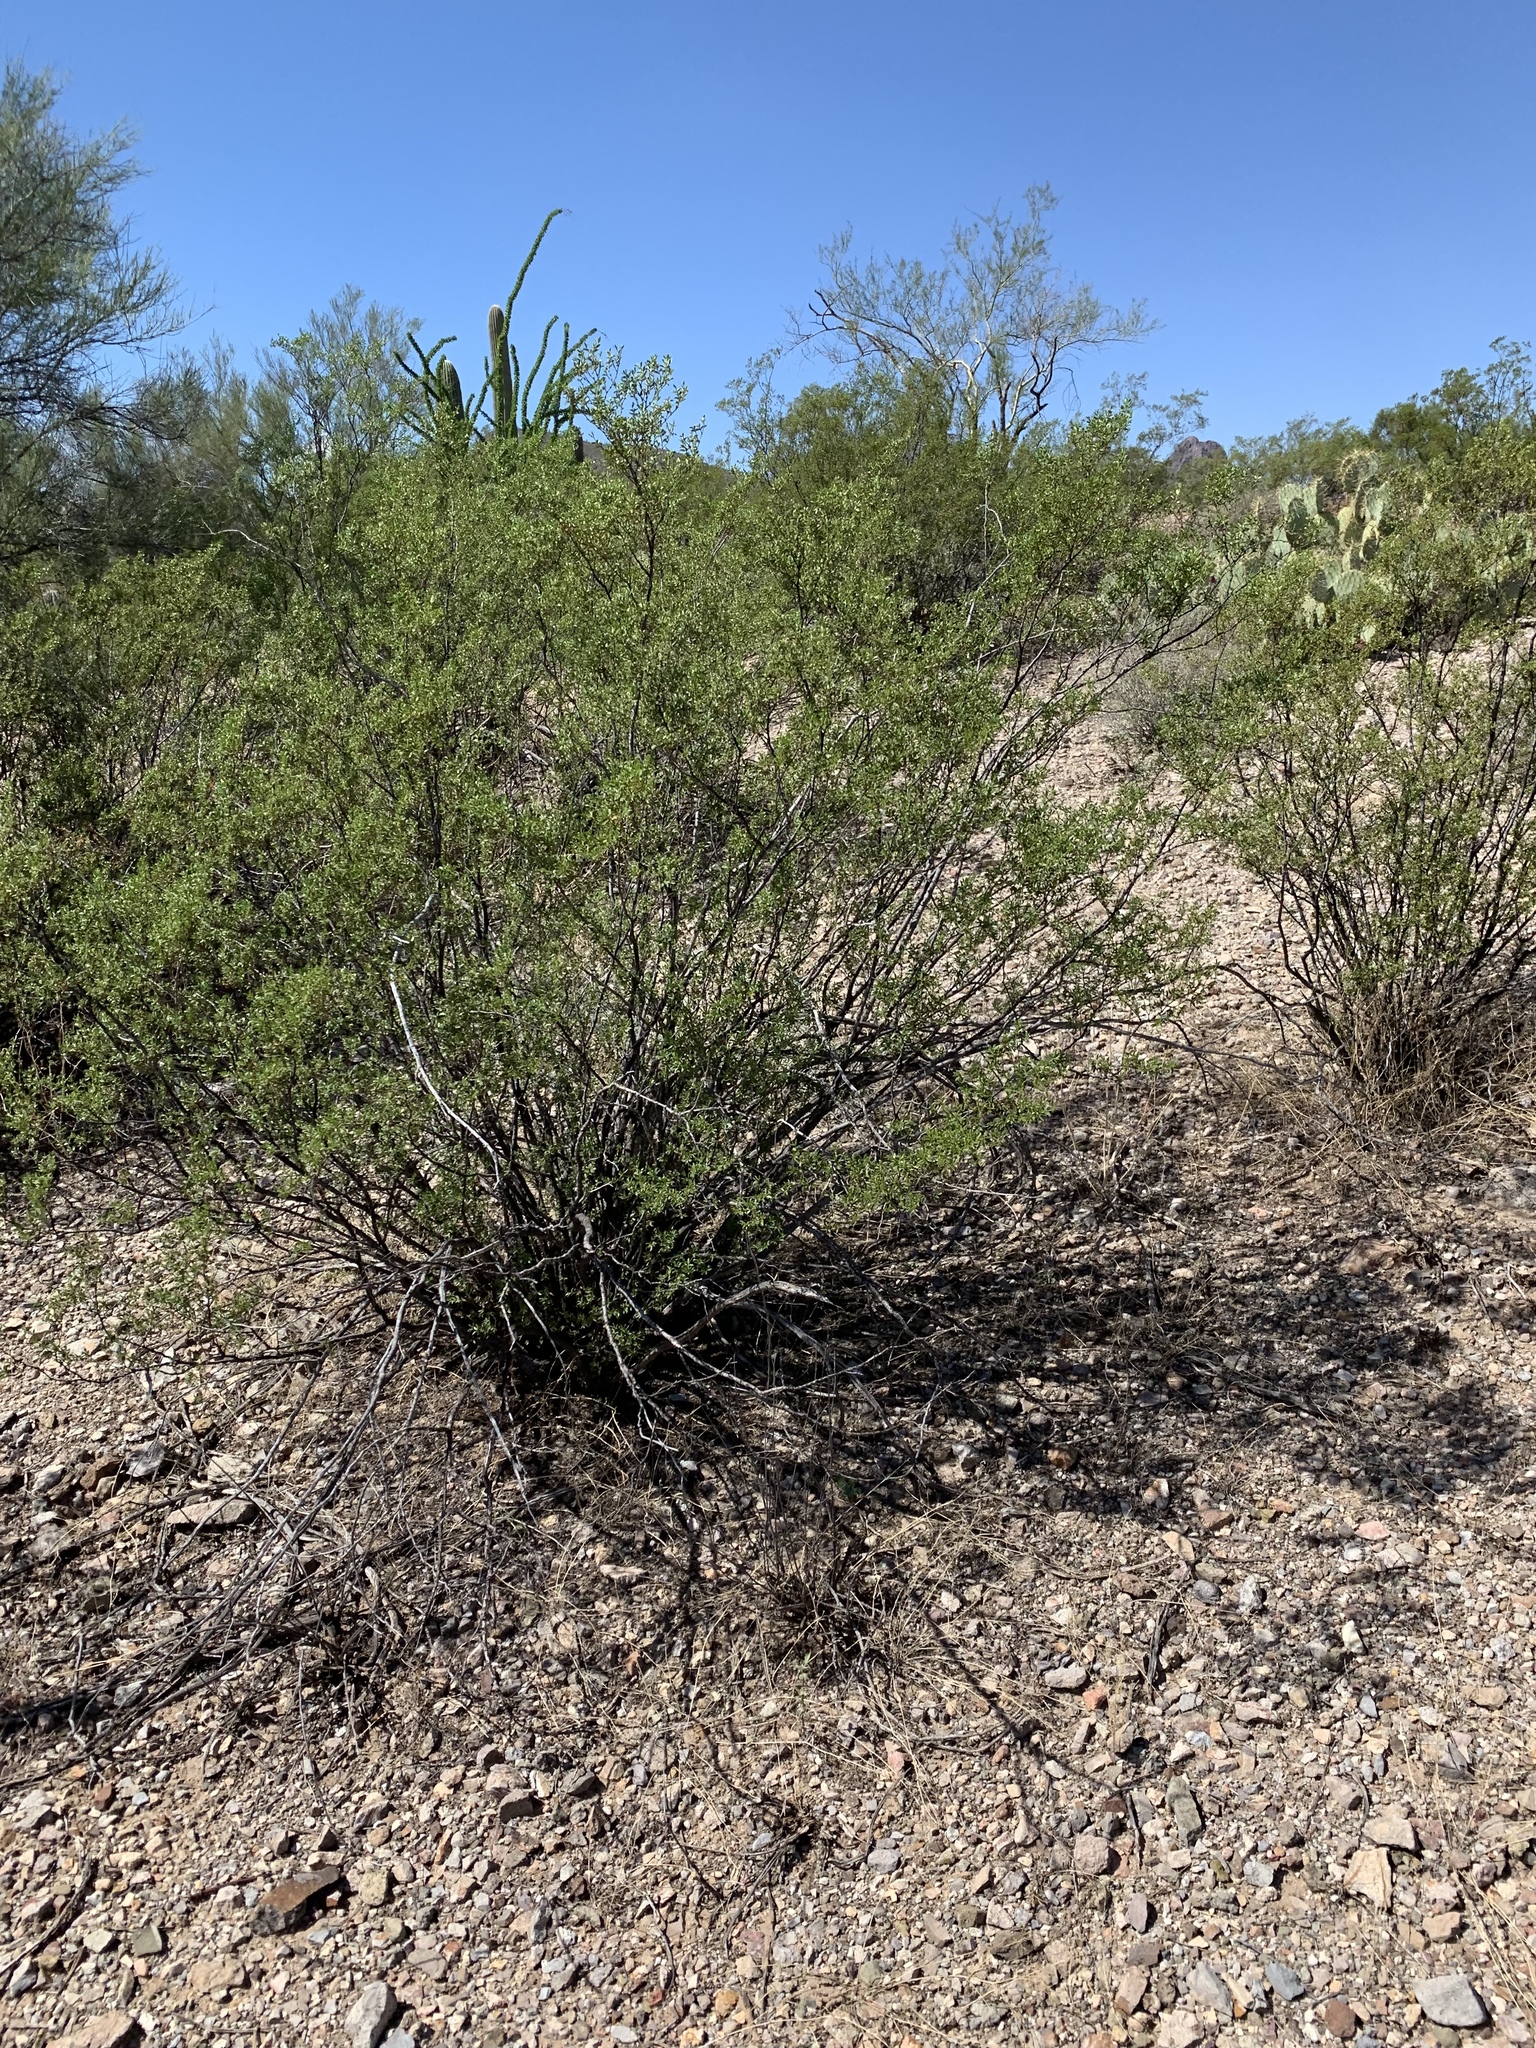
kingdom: Plantae
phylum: Tracheophyta
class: Magnoliopsida
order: Zygophyllales
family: Zygophyllaceae
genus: Larrea
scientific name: Larrea tridentata
